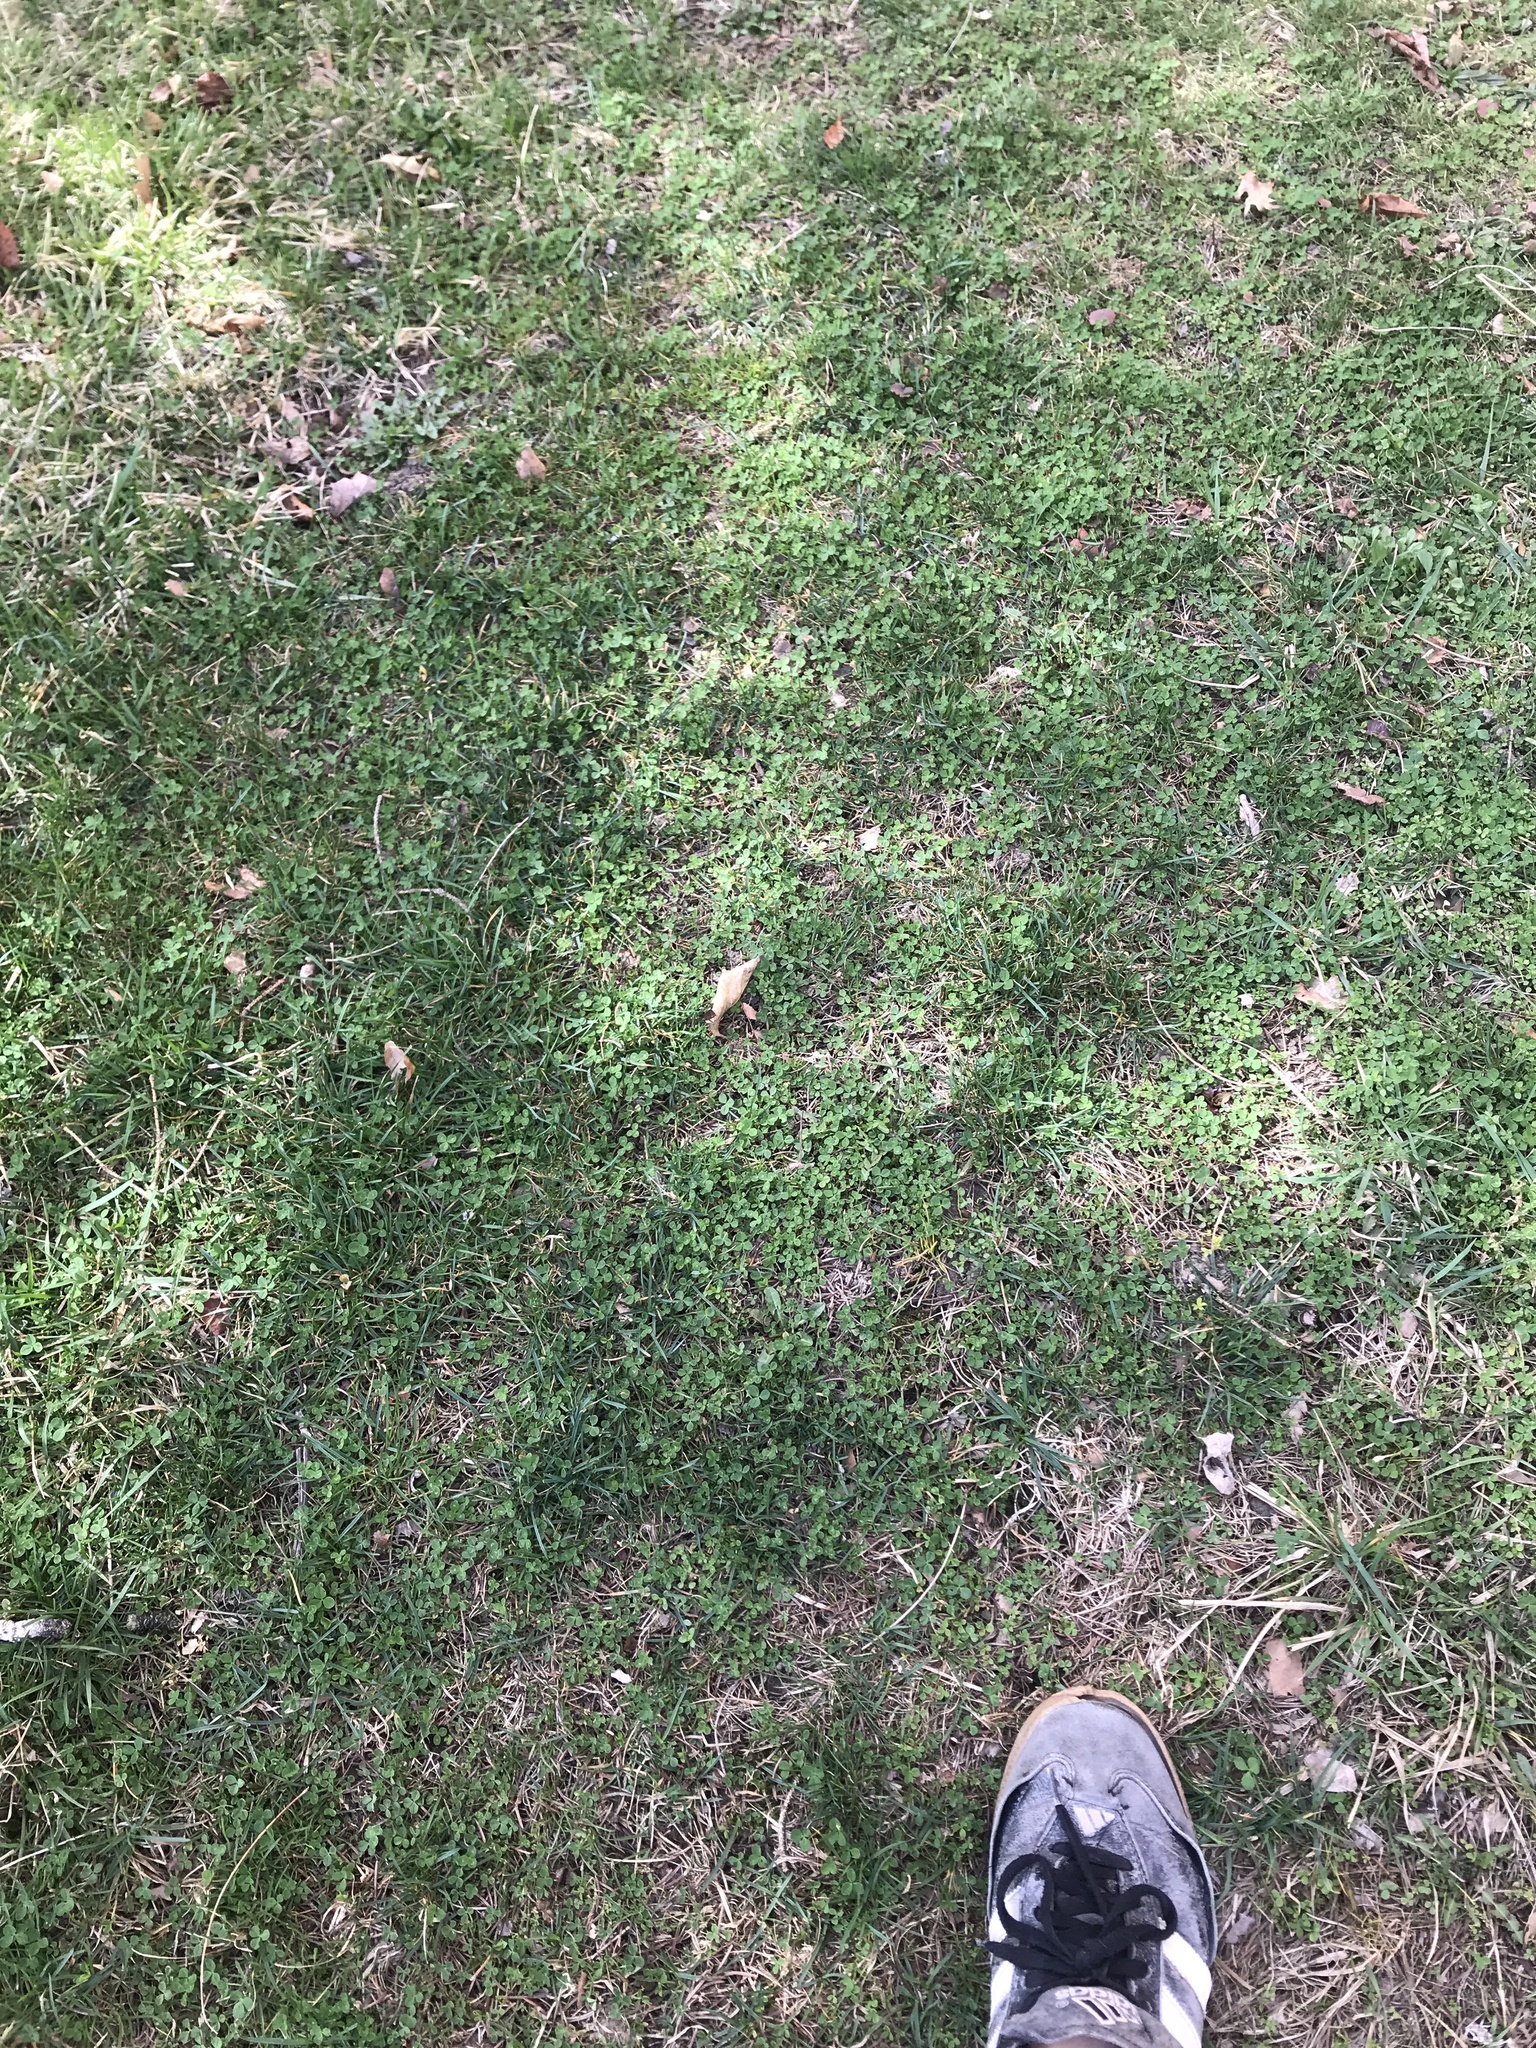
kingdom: Plantae
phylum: Tracheophyta
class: Magnoliopsida
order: Fabales
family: Fabaceae
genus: Trifolium
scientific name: Trifolium repens
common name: White clover
